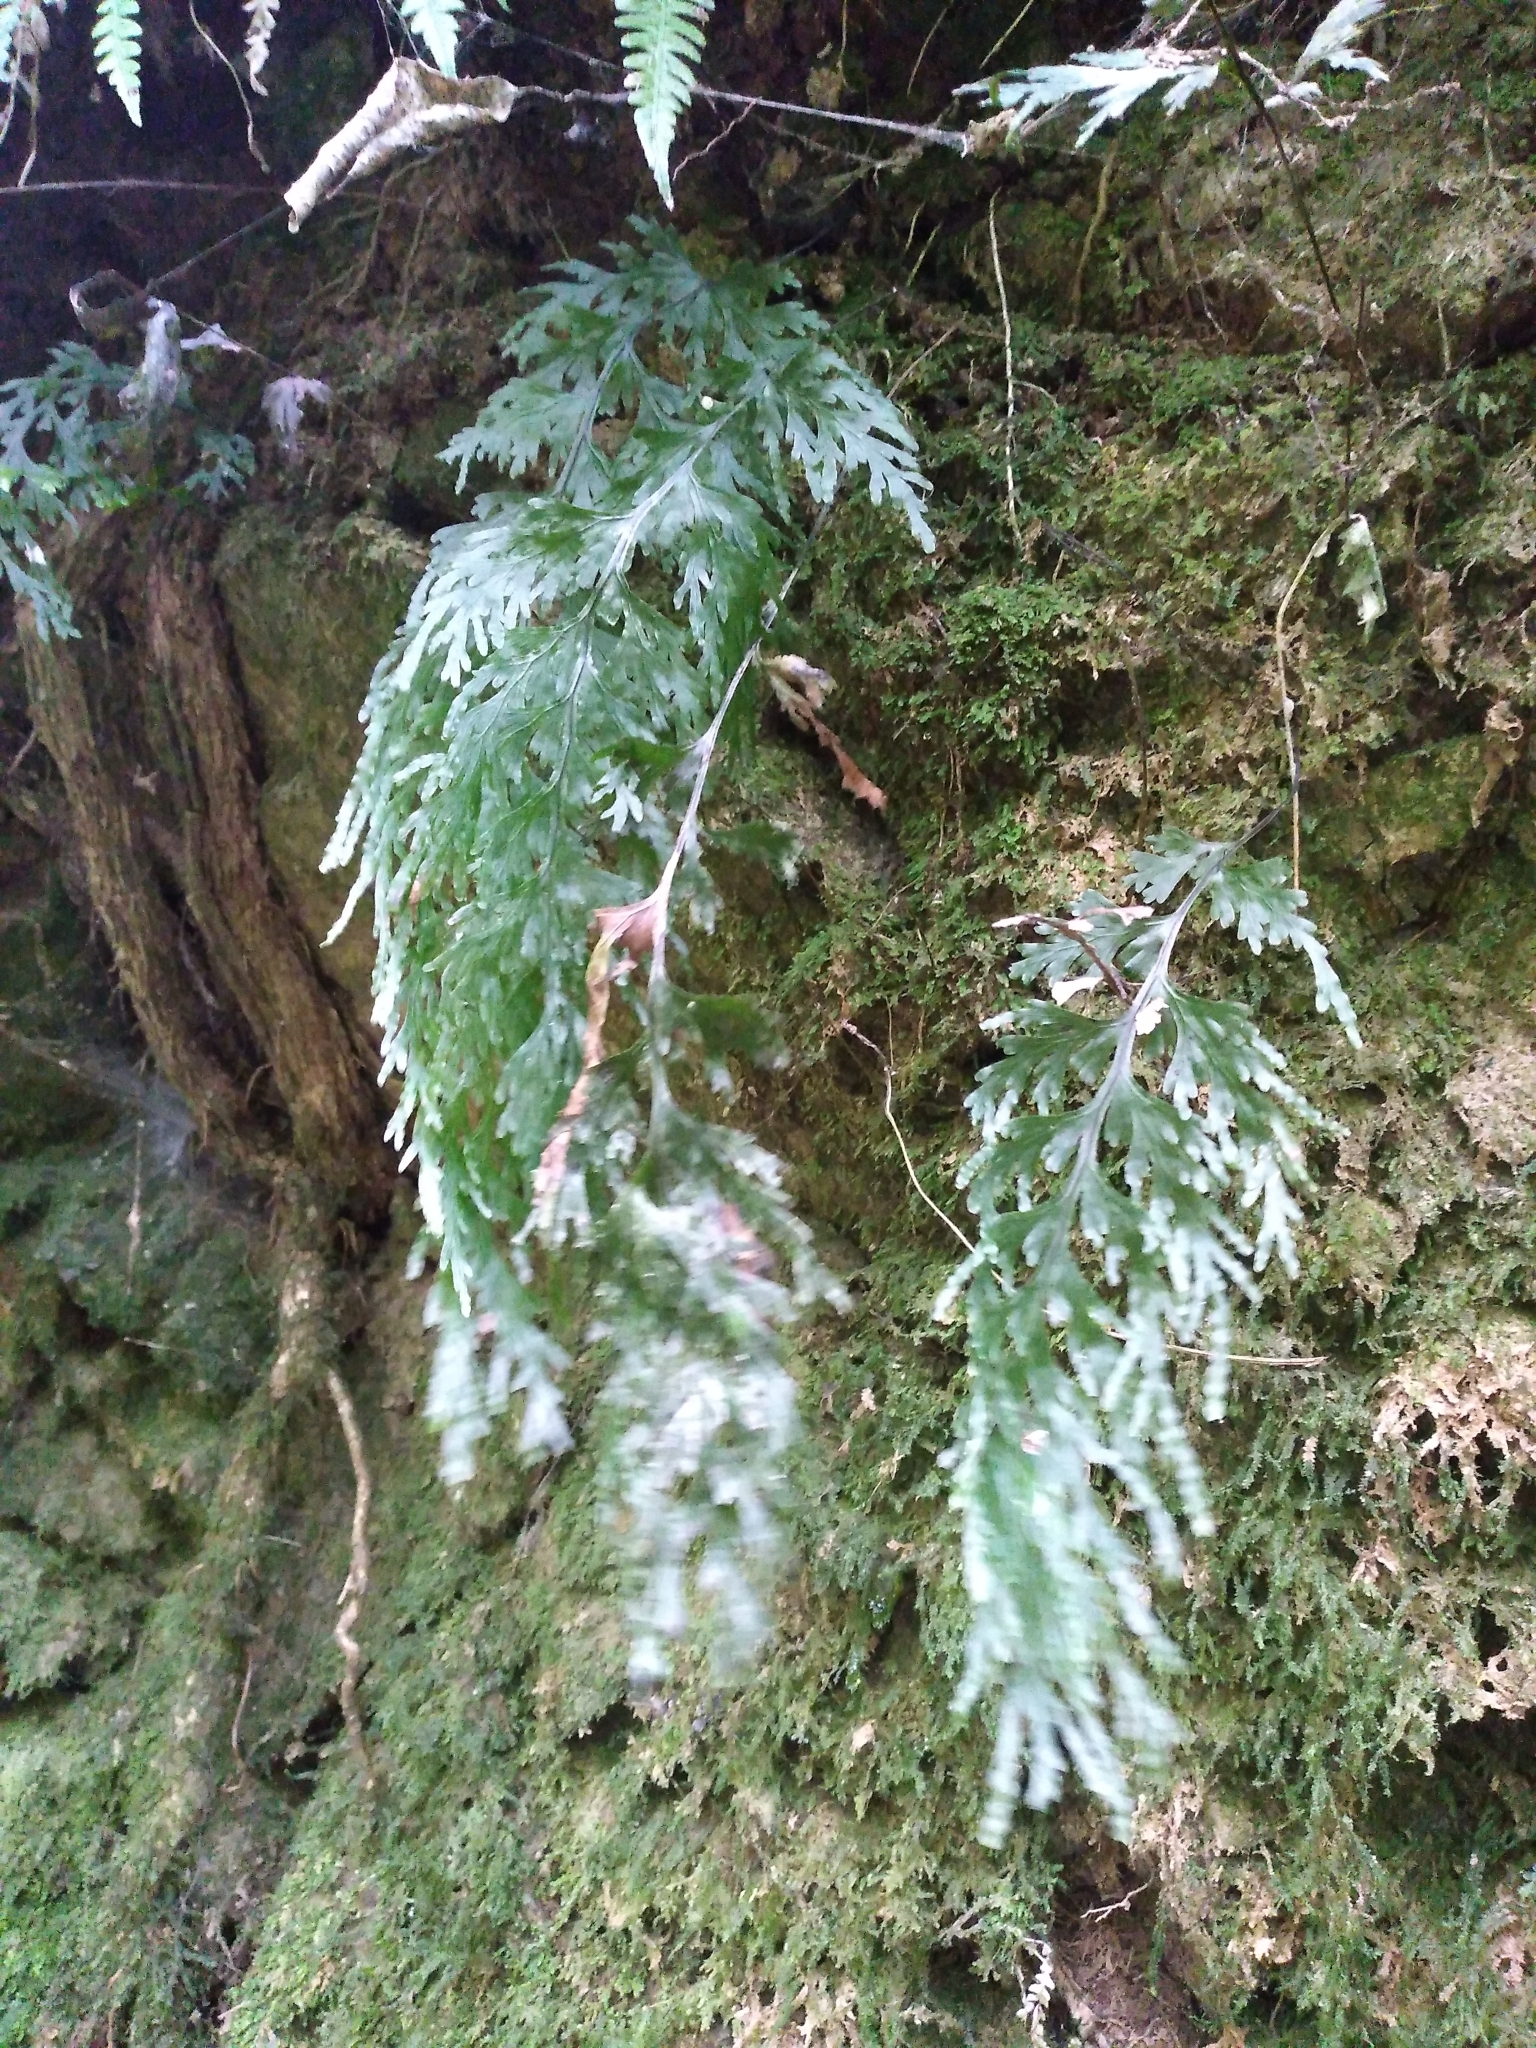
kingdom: Plantae
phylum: Tracheophyta
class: Polypodiopsida
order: Hymenophyllales
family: Hymenophyllaceae
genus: Hymenophyllum
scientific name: Hymenophyllum dilatatum
